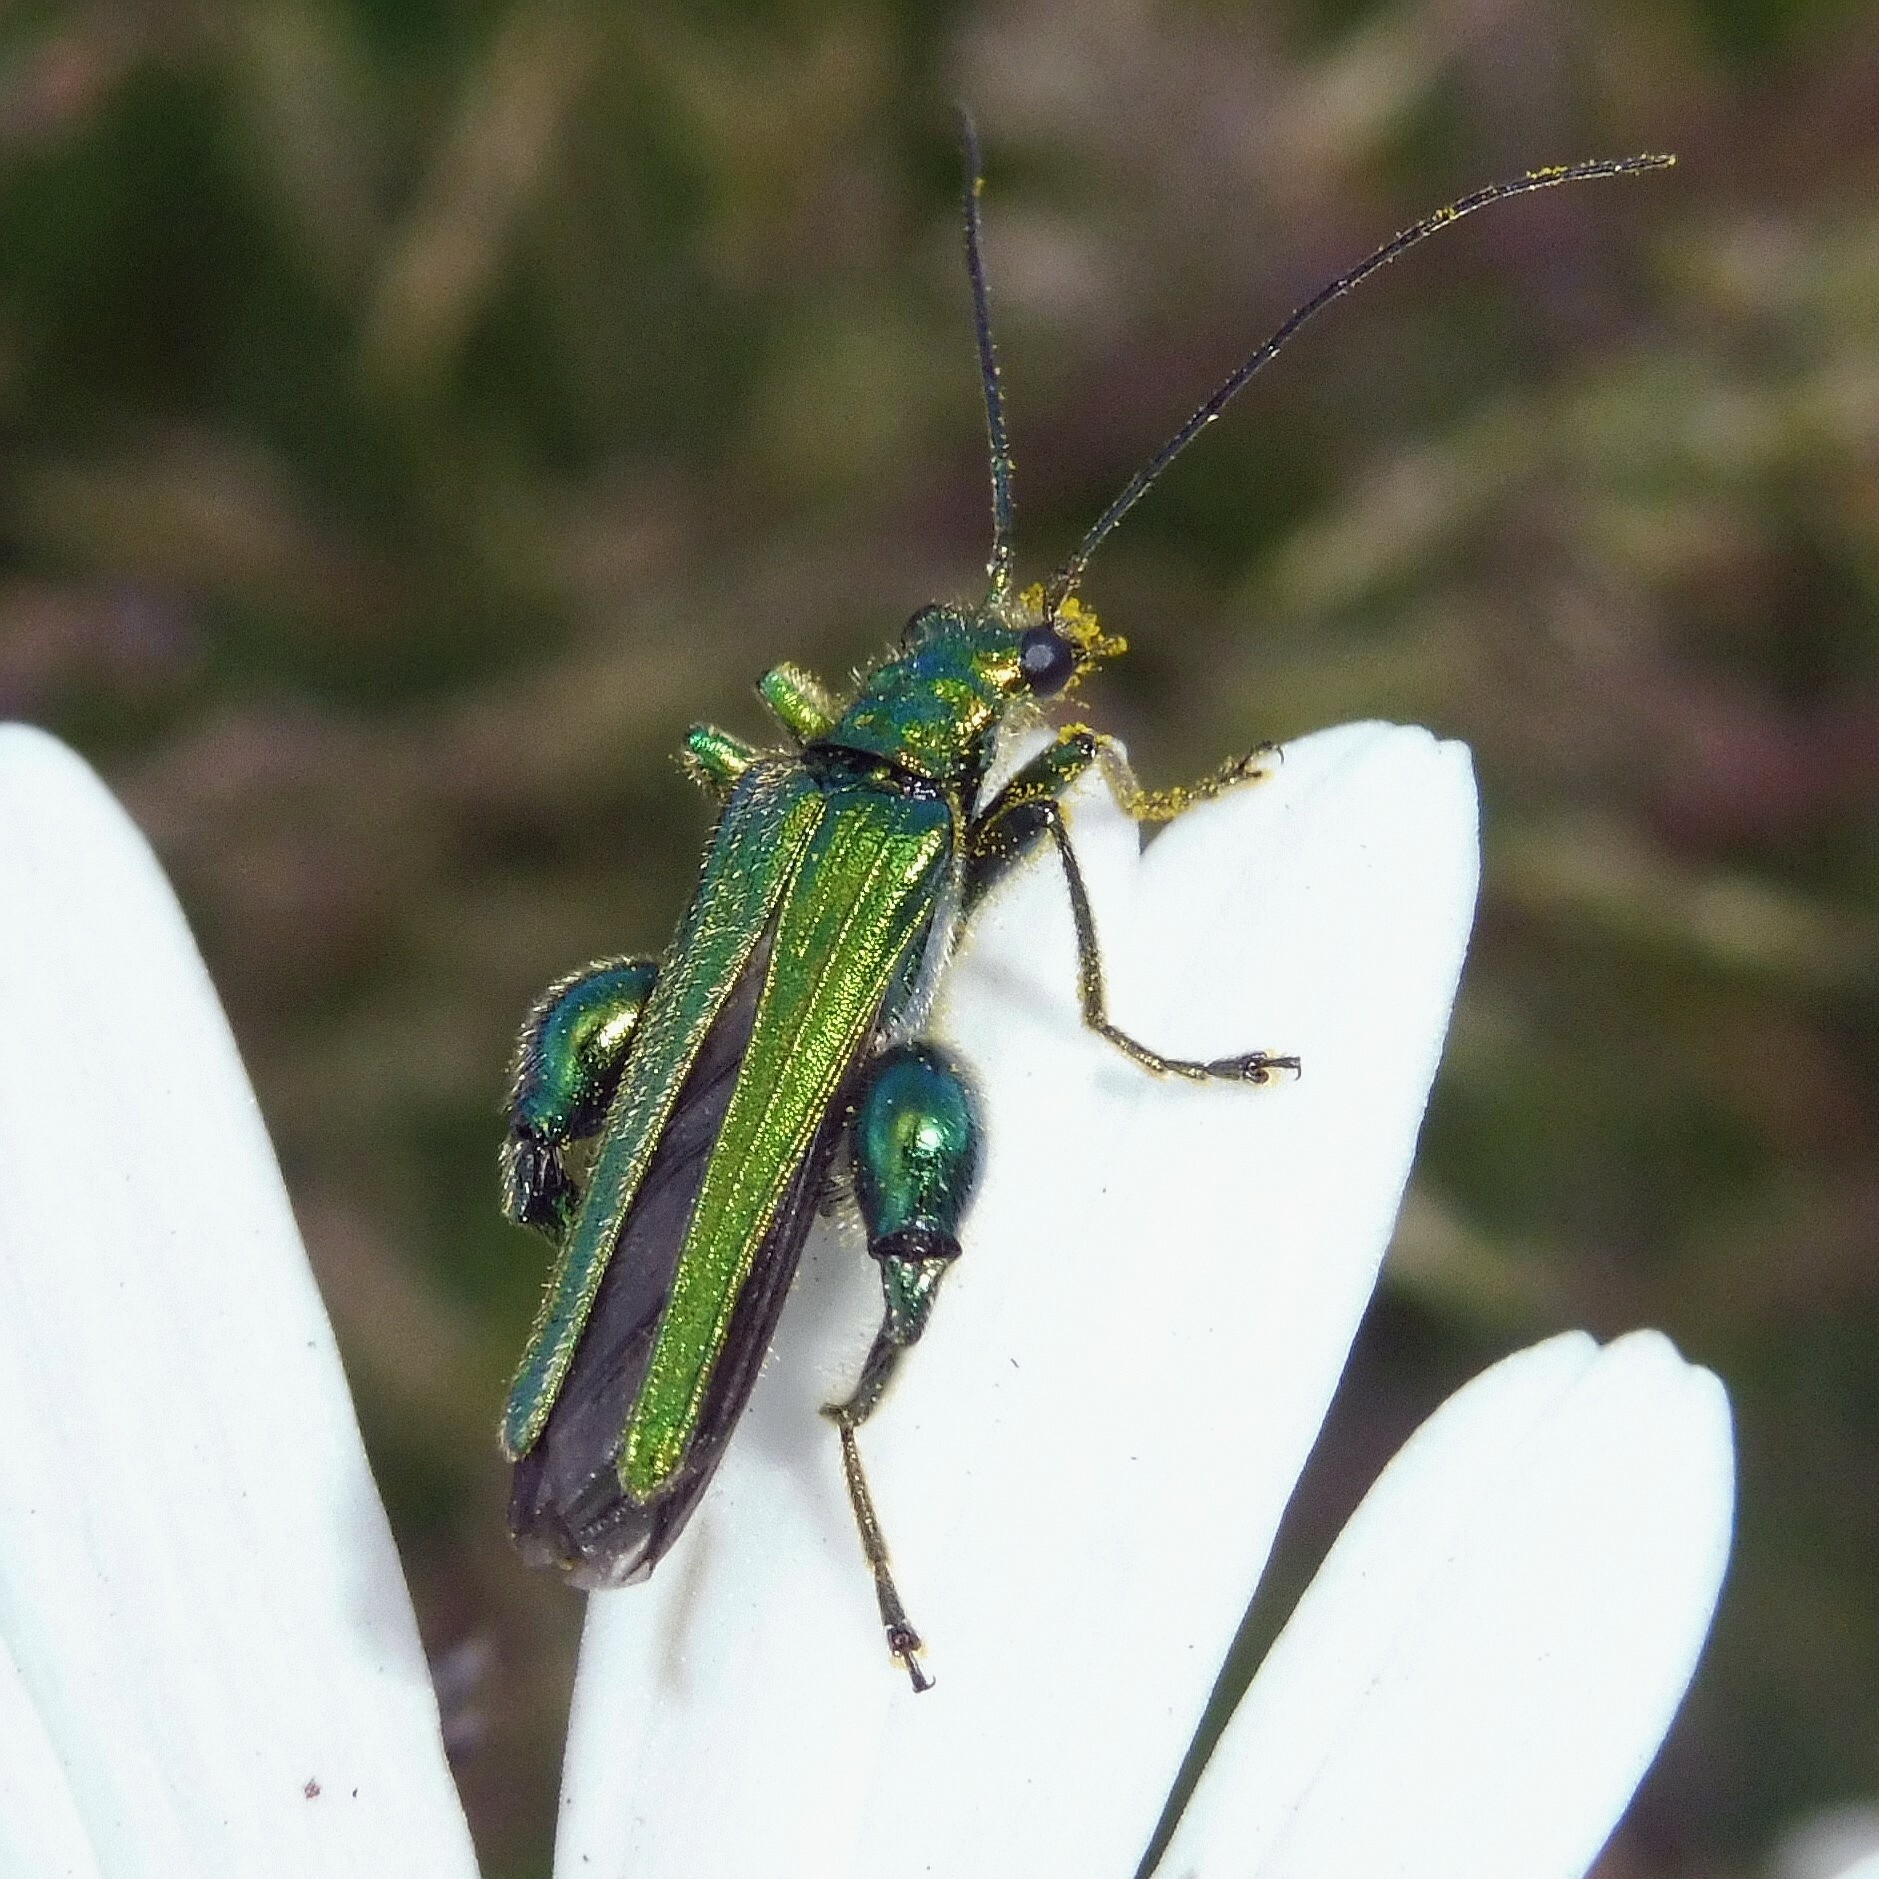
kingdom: Animalia
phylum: Arthropoda
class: Insecta
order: Coleoptera
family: Oedemeridae
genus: Oedemera
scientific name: Oedemera nobilis
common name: Swollen-thighed beetle
